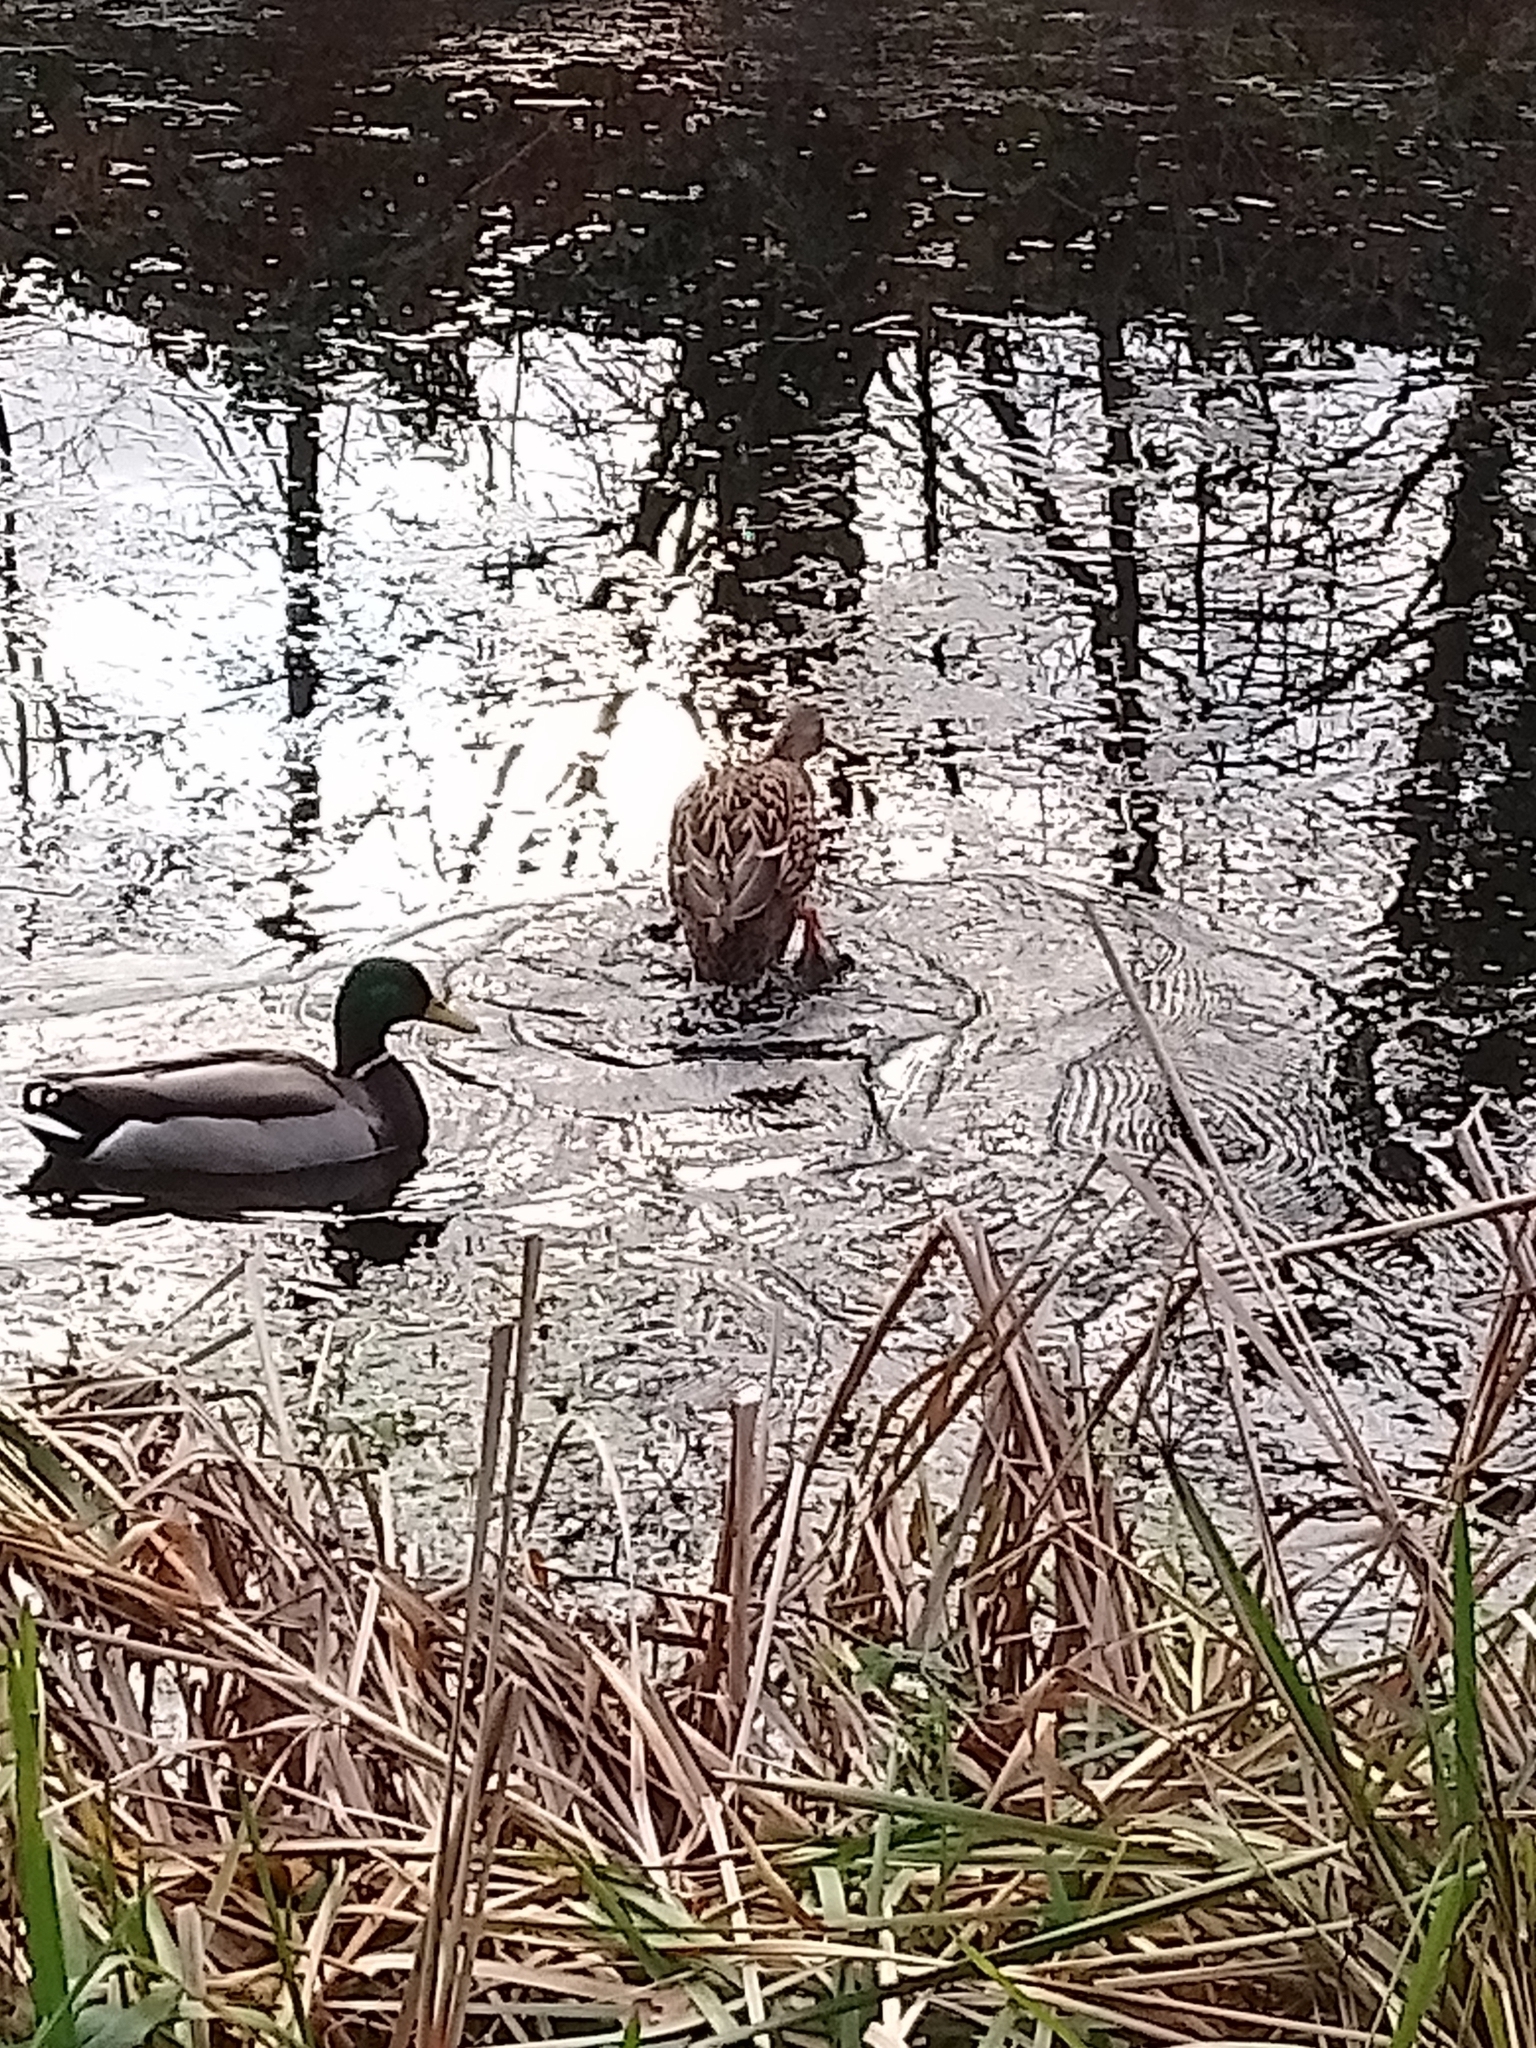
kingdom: Animalia
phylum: Chordata
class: Aves
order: Anseriformes
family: Anatidae
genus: Anas
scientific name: Anas platyrhynchos
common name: Mallard
